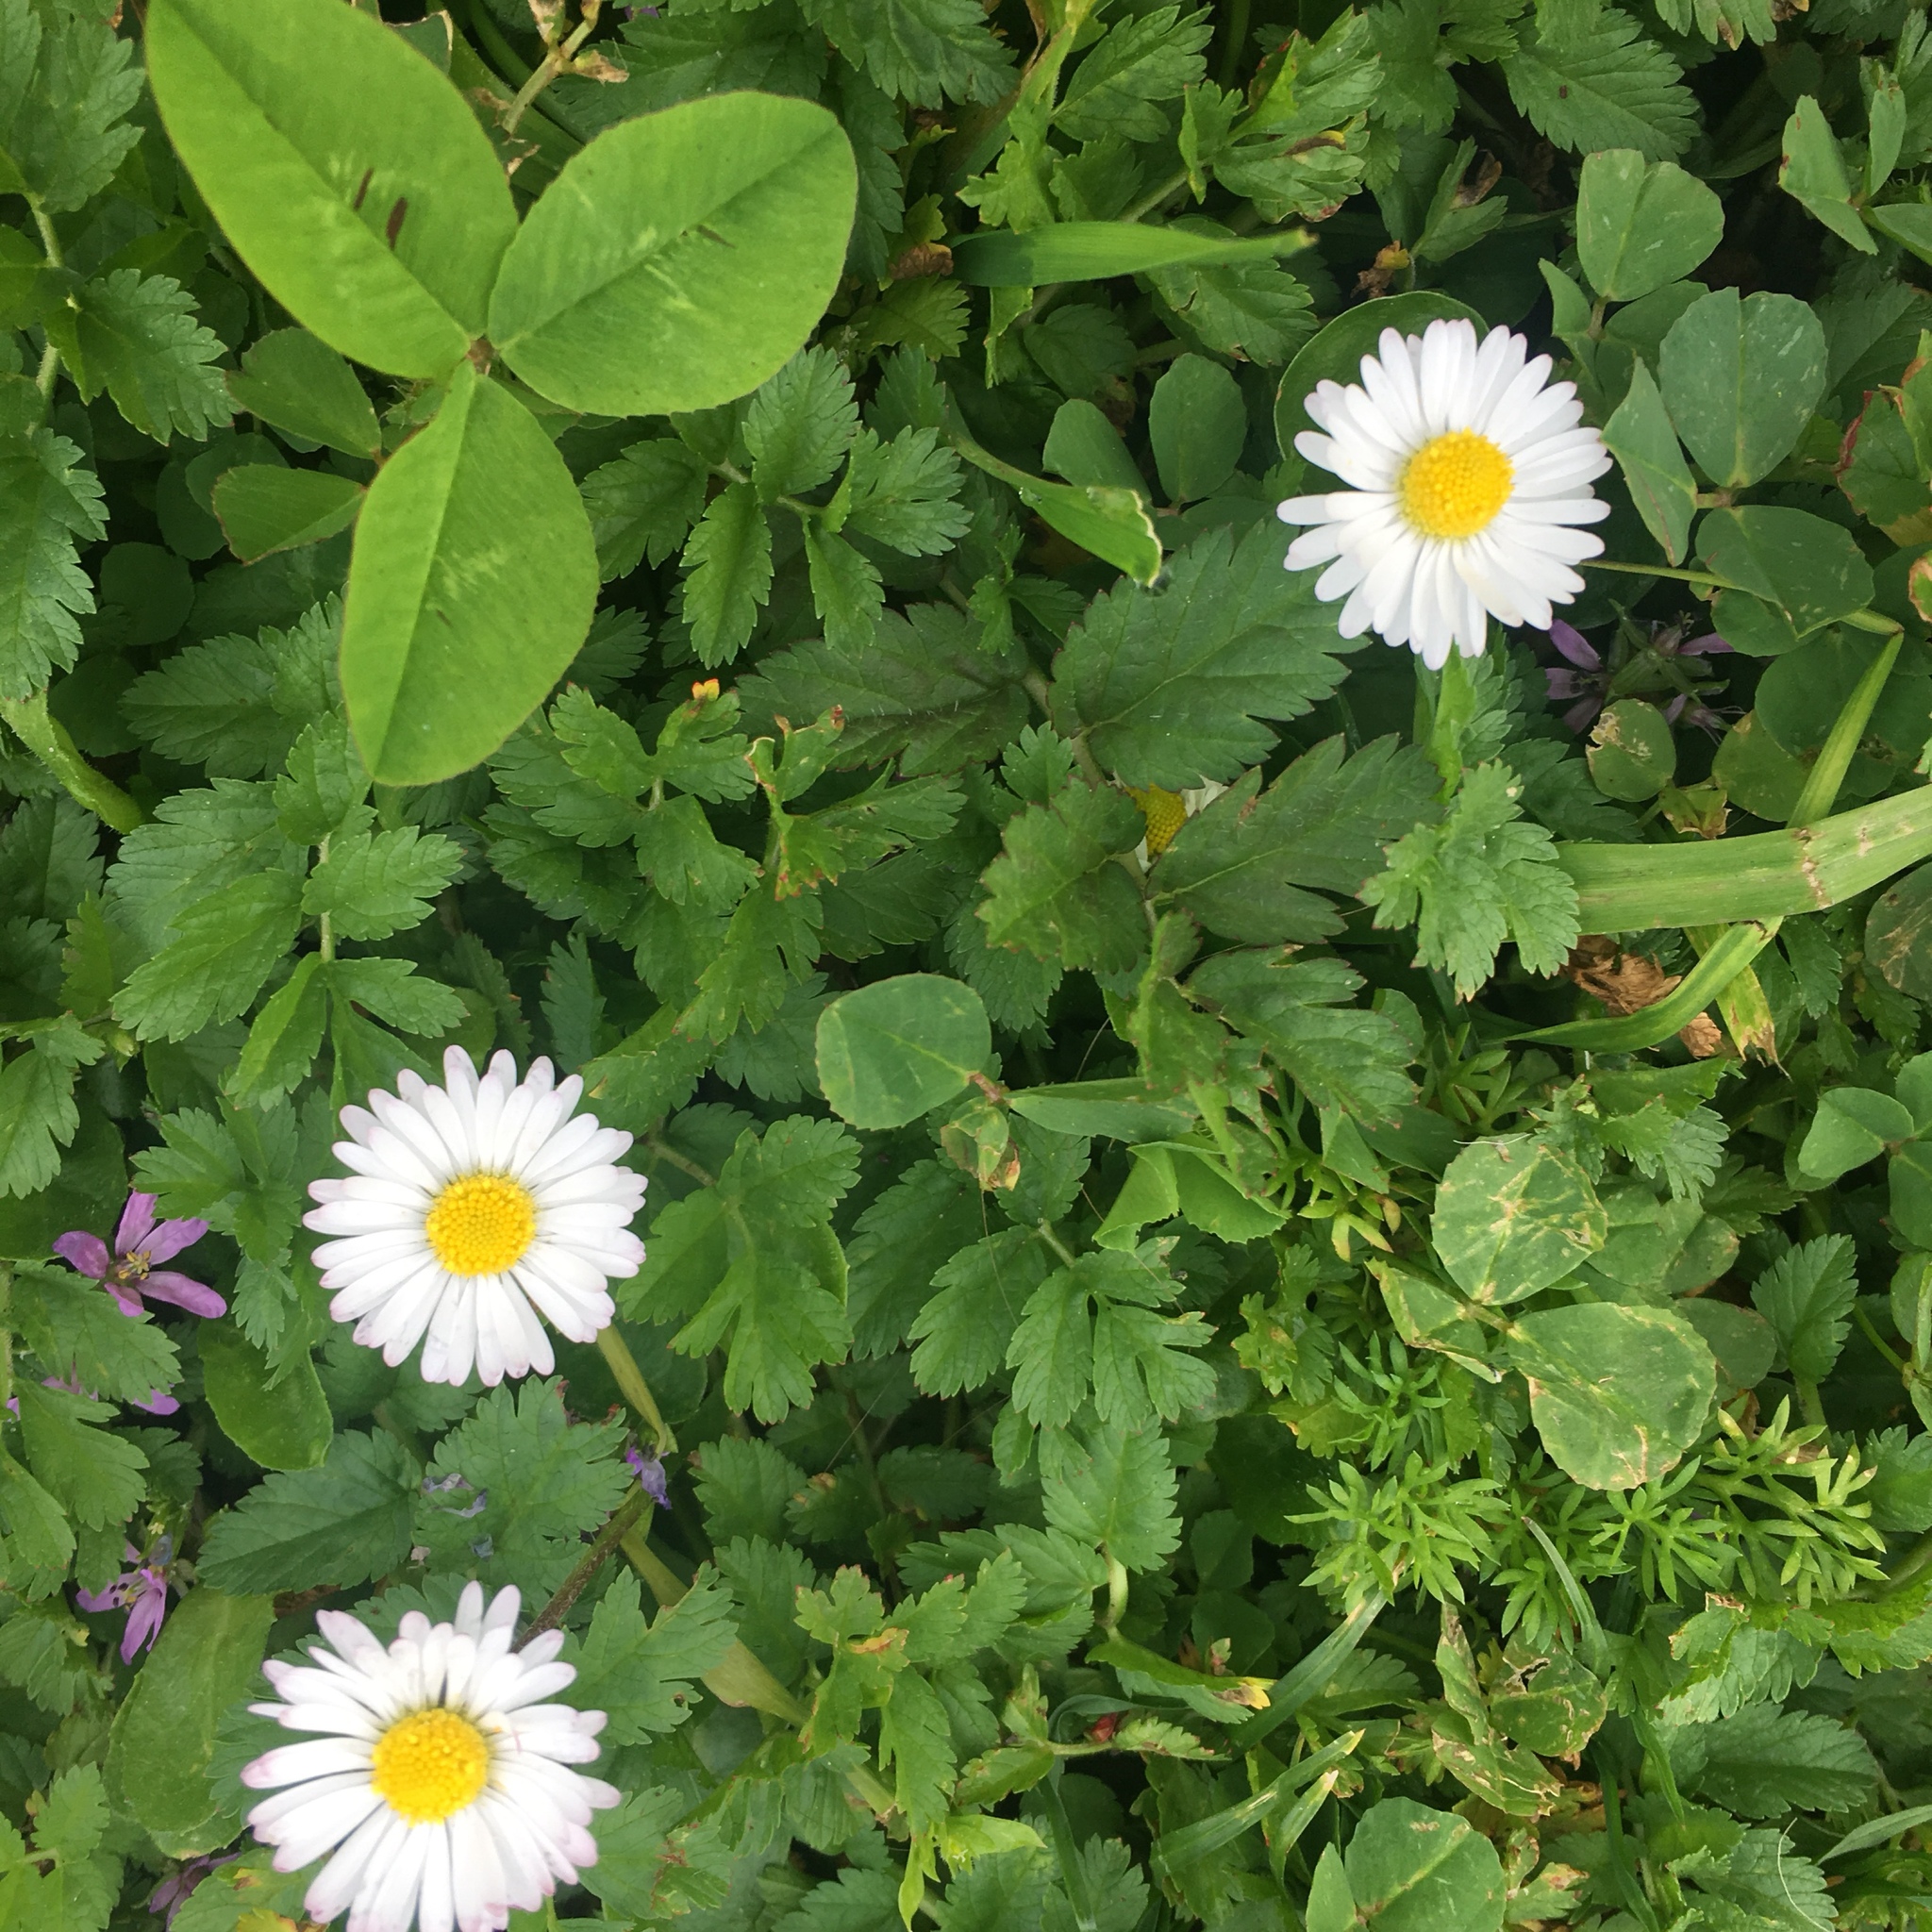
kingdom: Plantae
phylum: Tracheophyta
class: Magnoliopsida
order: Asterales
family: Asteraceae
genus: Bellis
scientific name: Bellis perennis
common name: Lawndaisy
